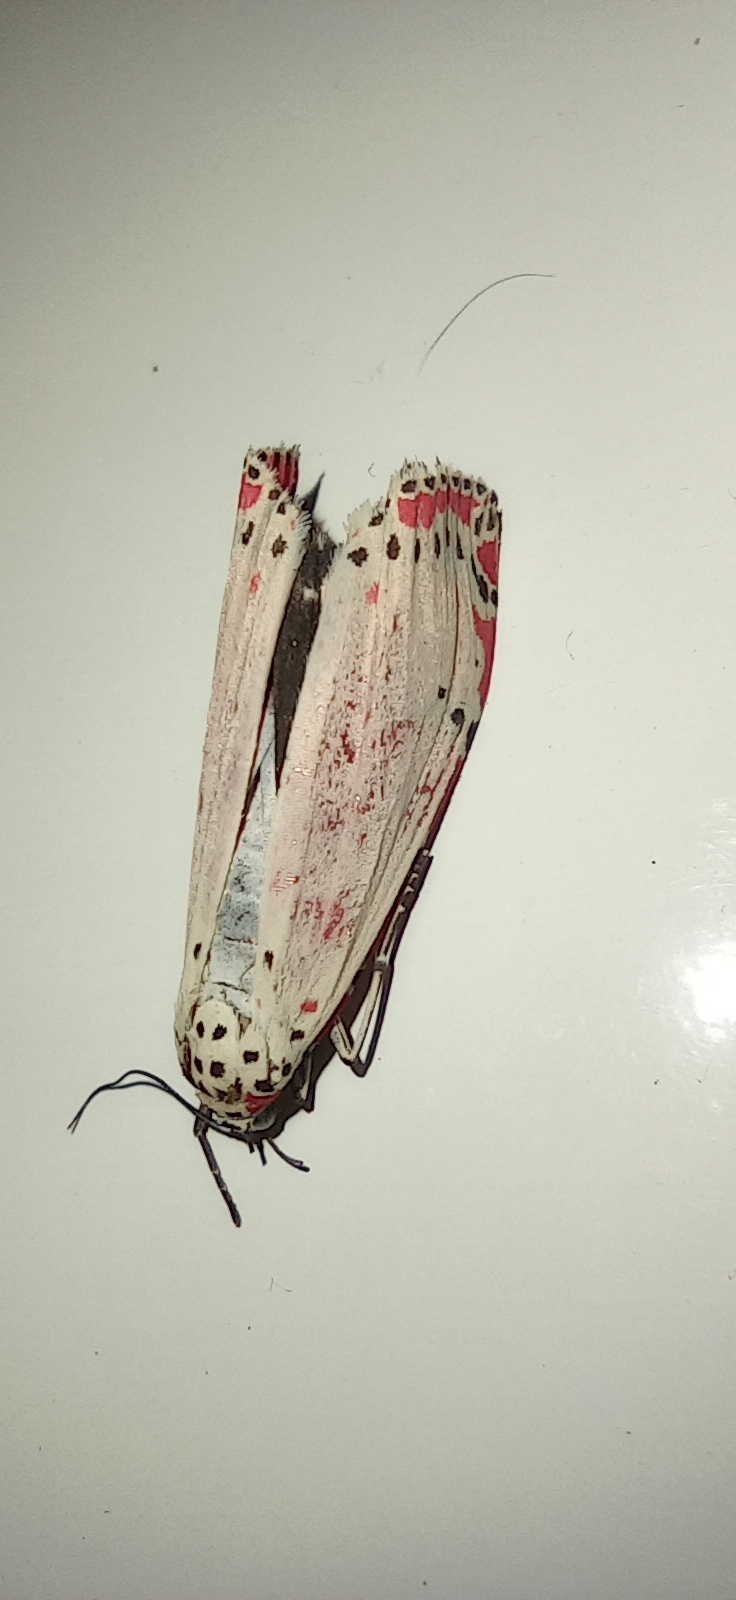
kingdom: Animalia
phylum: Arthropoda
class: Insecta
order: Lepidoptera
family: Erebidae
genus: Utetheisa
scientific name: Utetheisa ornatrix
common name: Beautiful utetheisa
